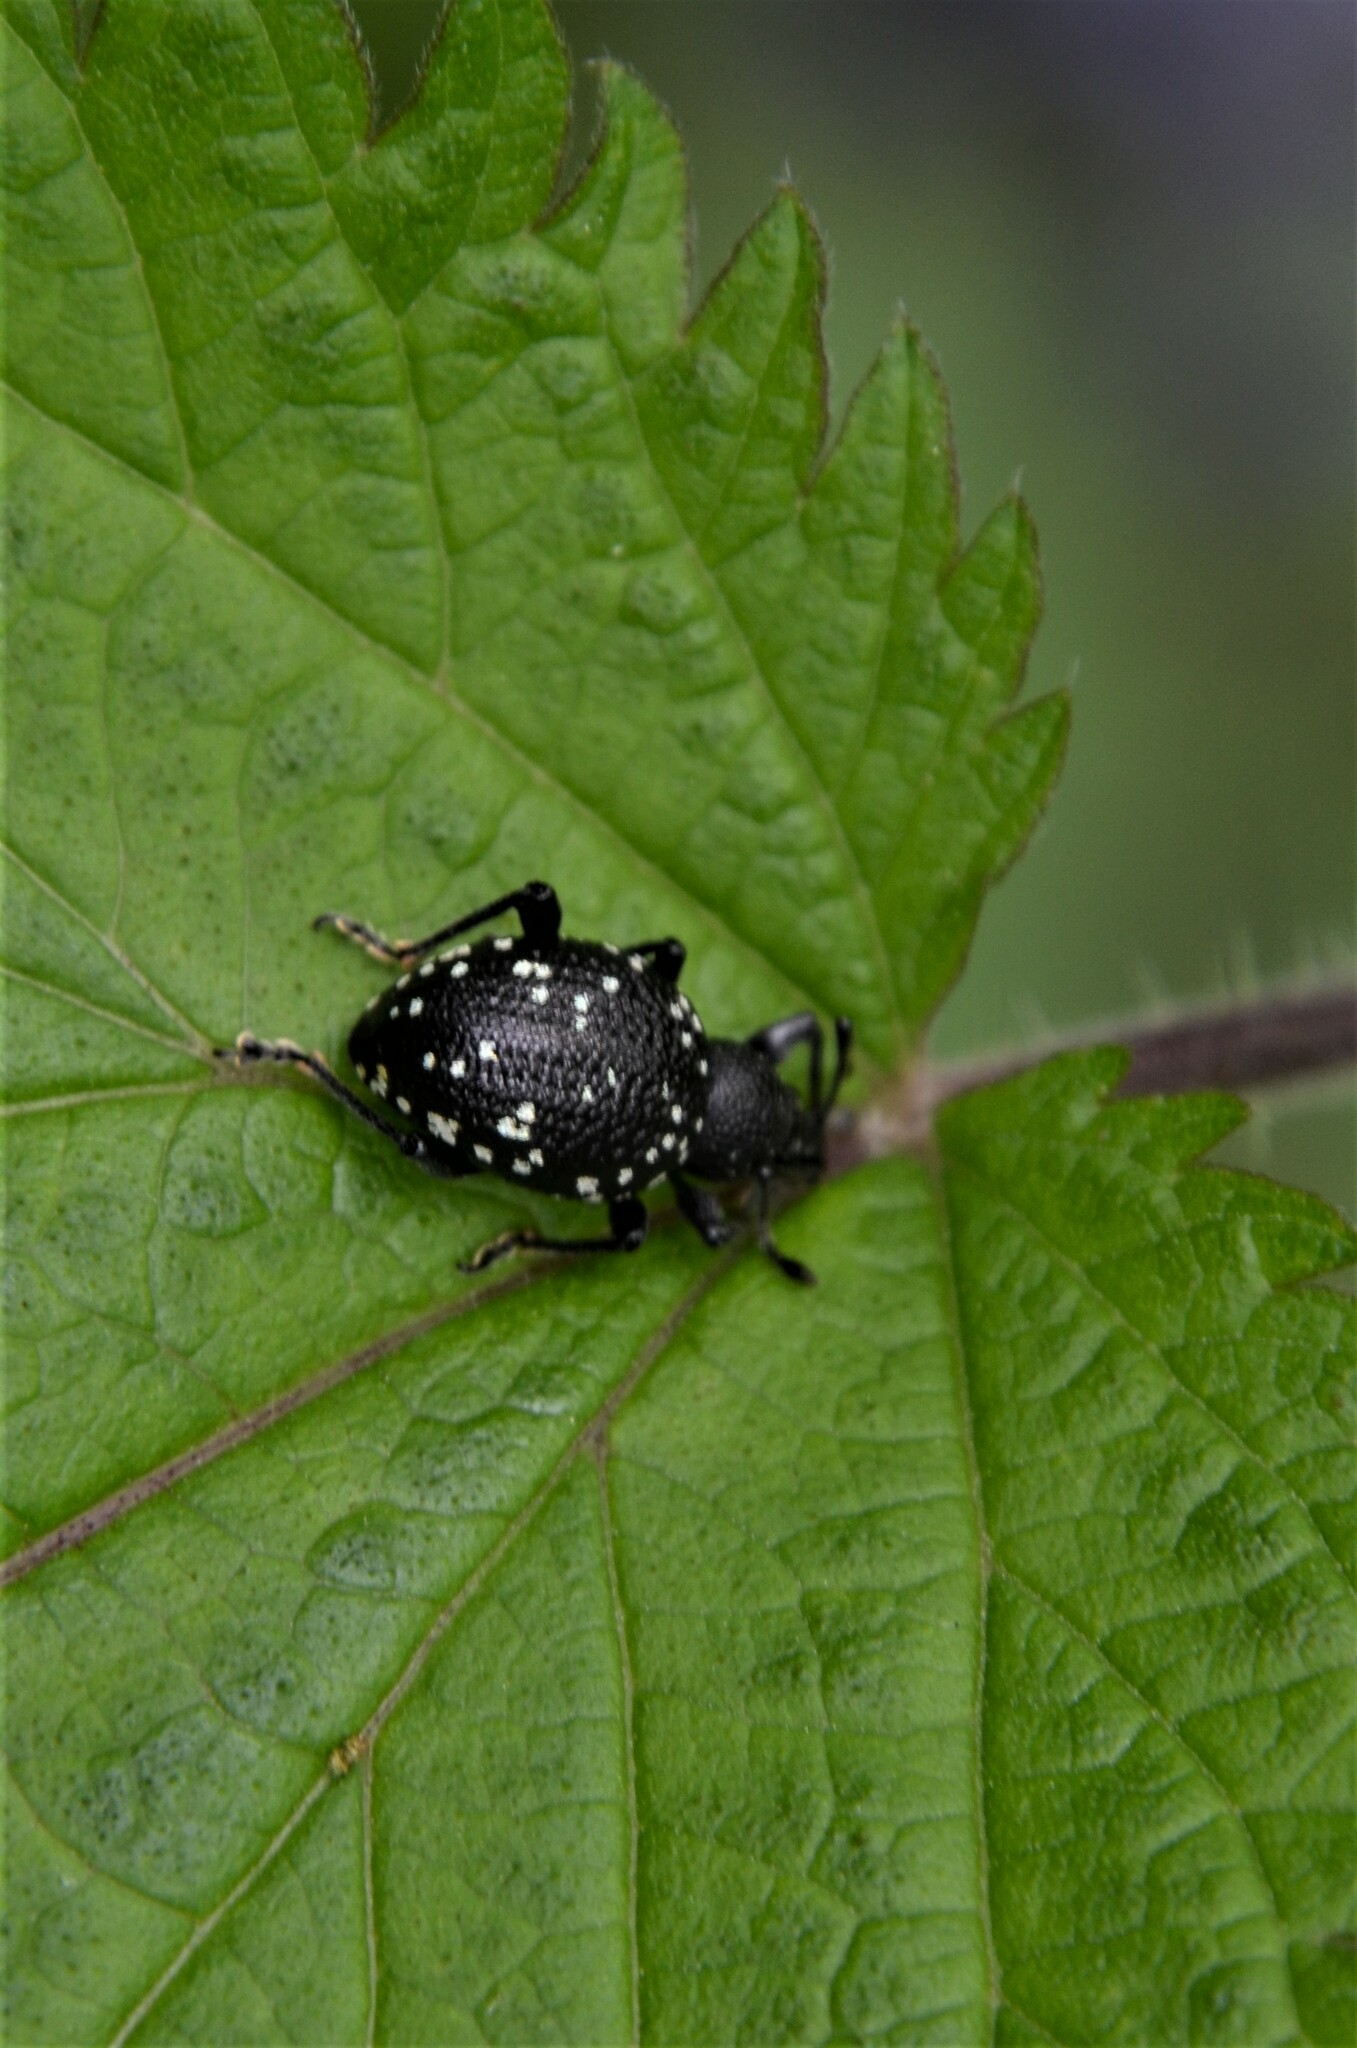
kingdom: Animalia
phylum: Arthropoda
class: Insecta
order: Coleoptera
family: Curculionidae
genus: Otiorhynchus
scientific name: Otiorhynchus gemmatus
